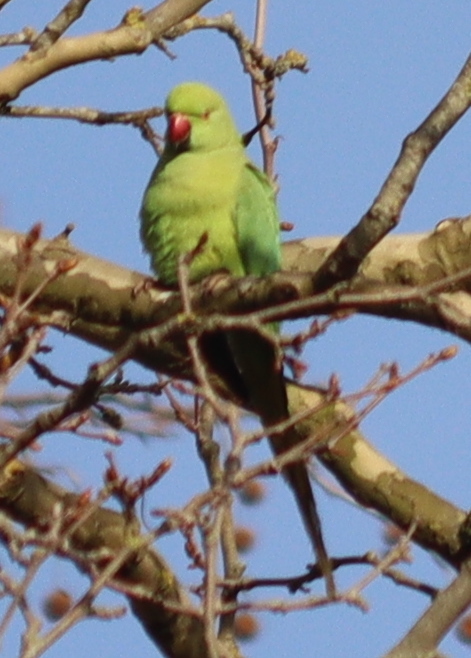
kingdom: Animalia
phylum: Chordata
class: Aves
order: Psittaciformes
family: Psittacidae
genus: Psittacula
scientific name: Psittacula krameri
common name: Rose-ringed parakeet
